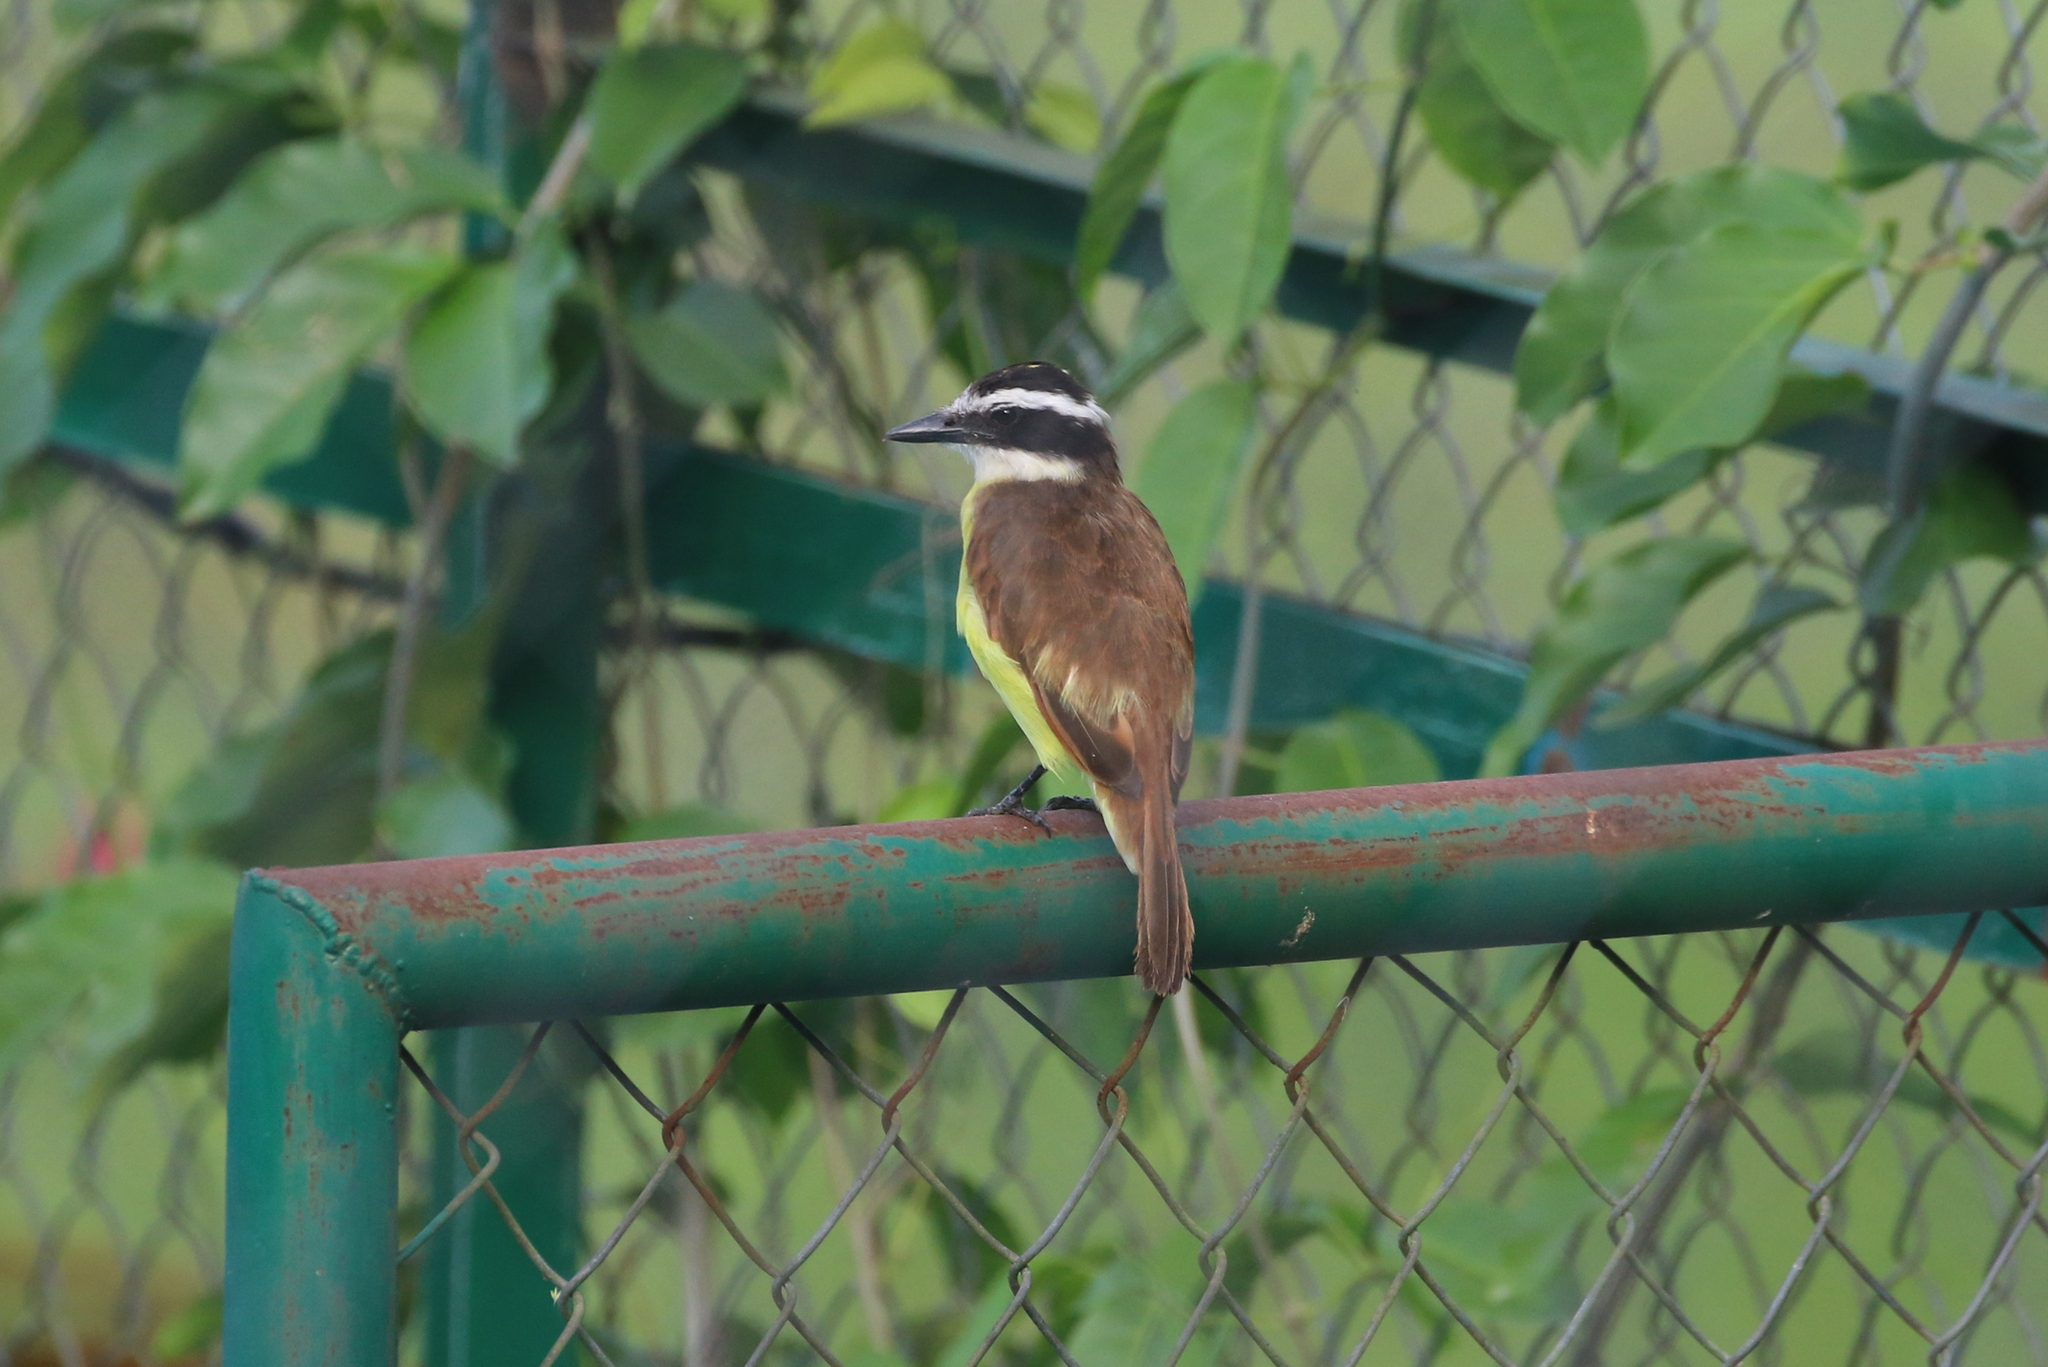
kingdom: Animalia
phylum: Chordata
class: Aves
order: Passeriformes
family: Tyrannidae
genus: Pitangus
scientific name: Pitangus sulphuratus
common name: Great kiskadee
